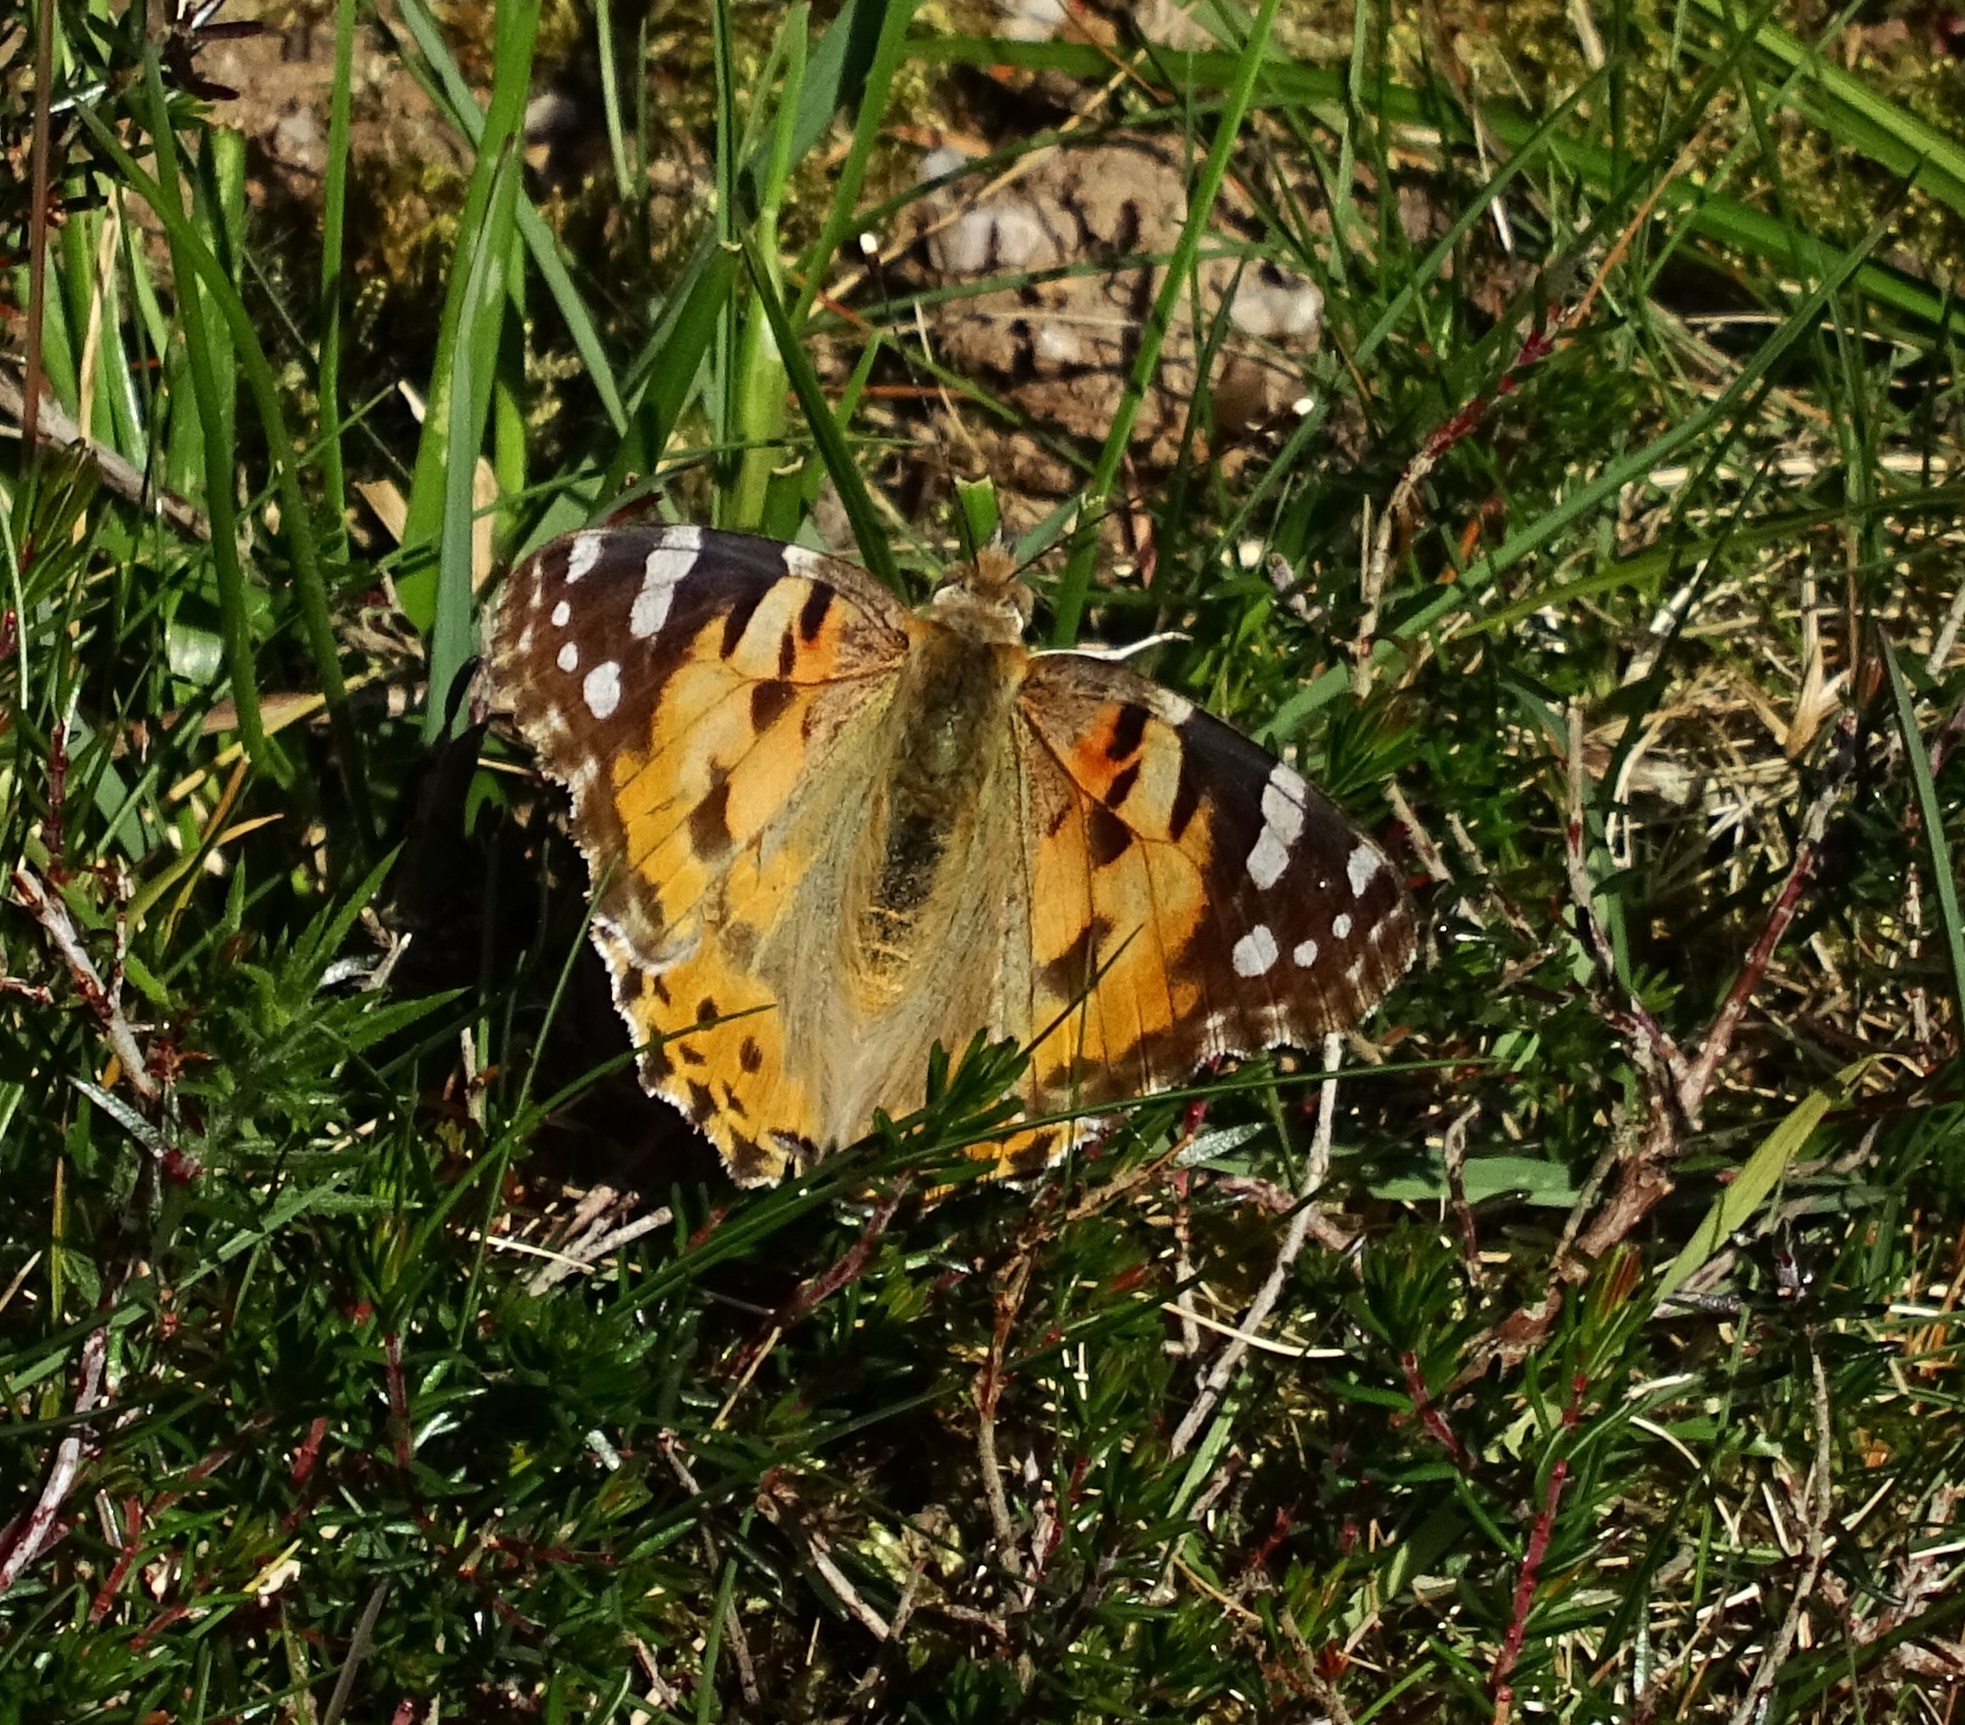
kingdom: Animalia
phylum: Arthropoda
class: Insecta
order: Lepidoptera
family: Nymphalidae
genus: Vanessa
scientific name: Vanessa cardui
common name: Painted lady
